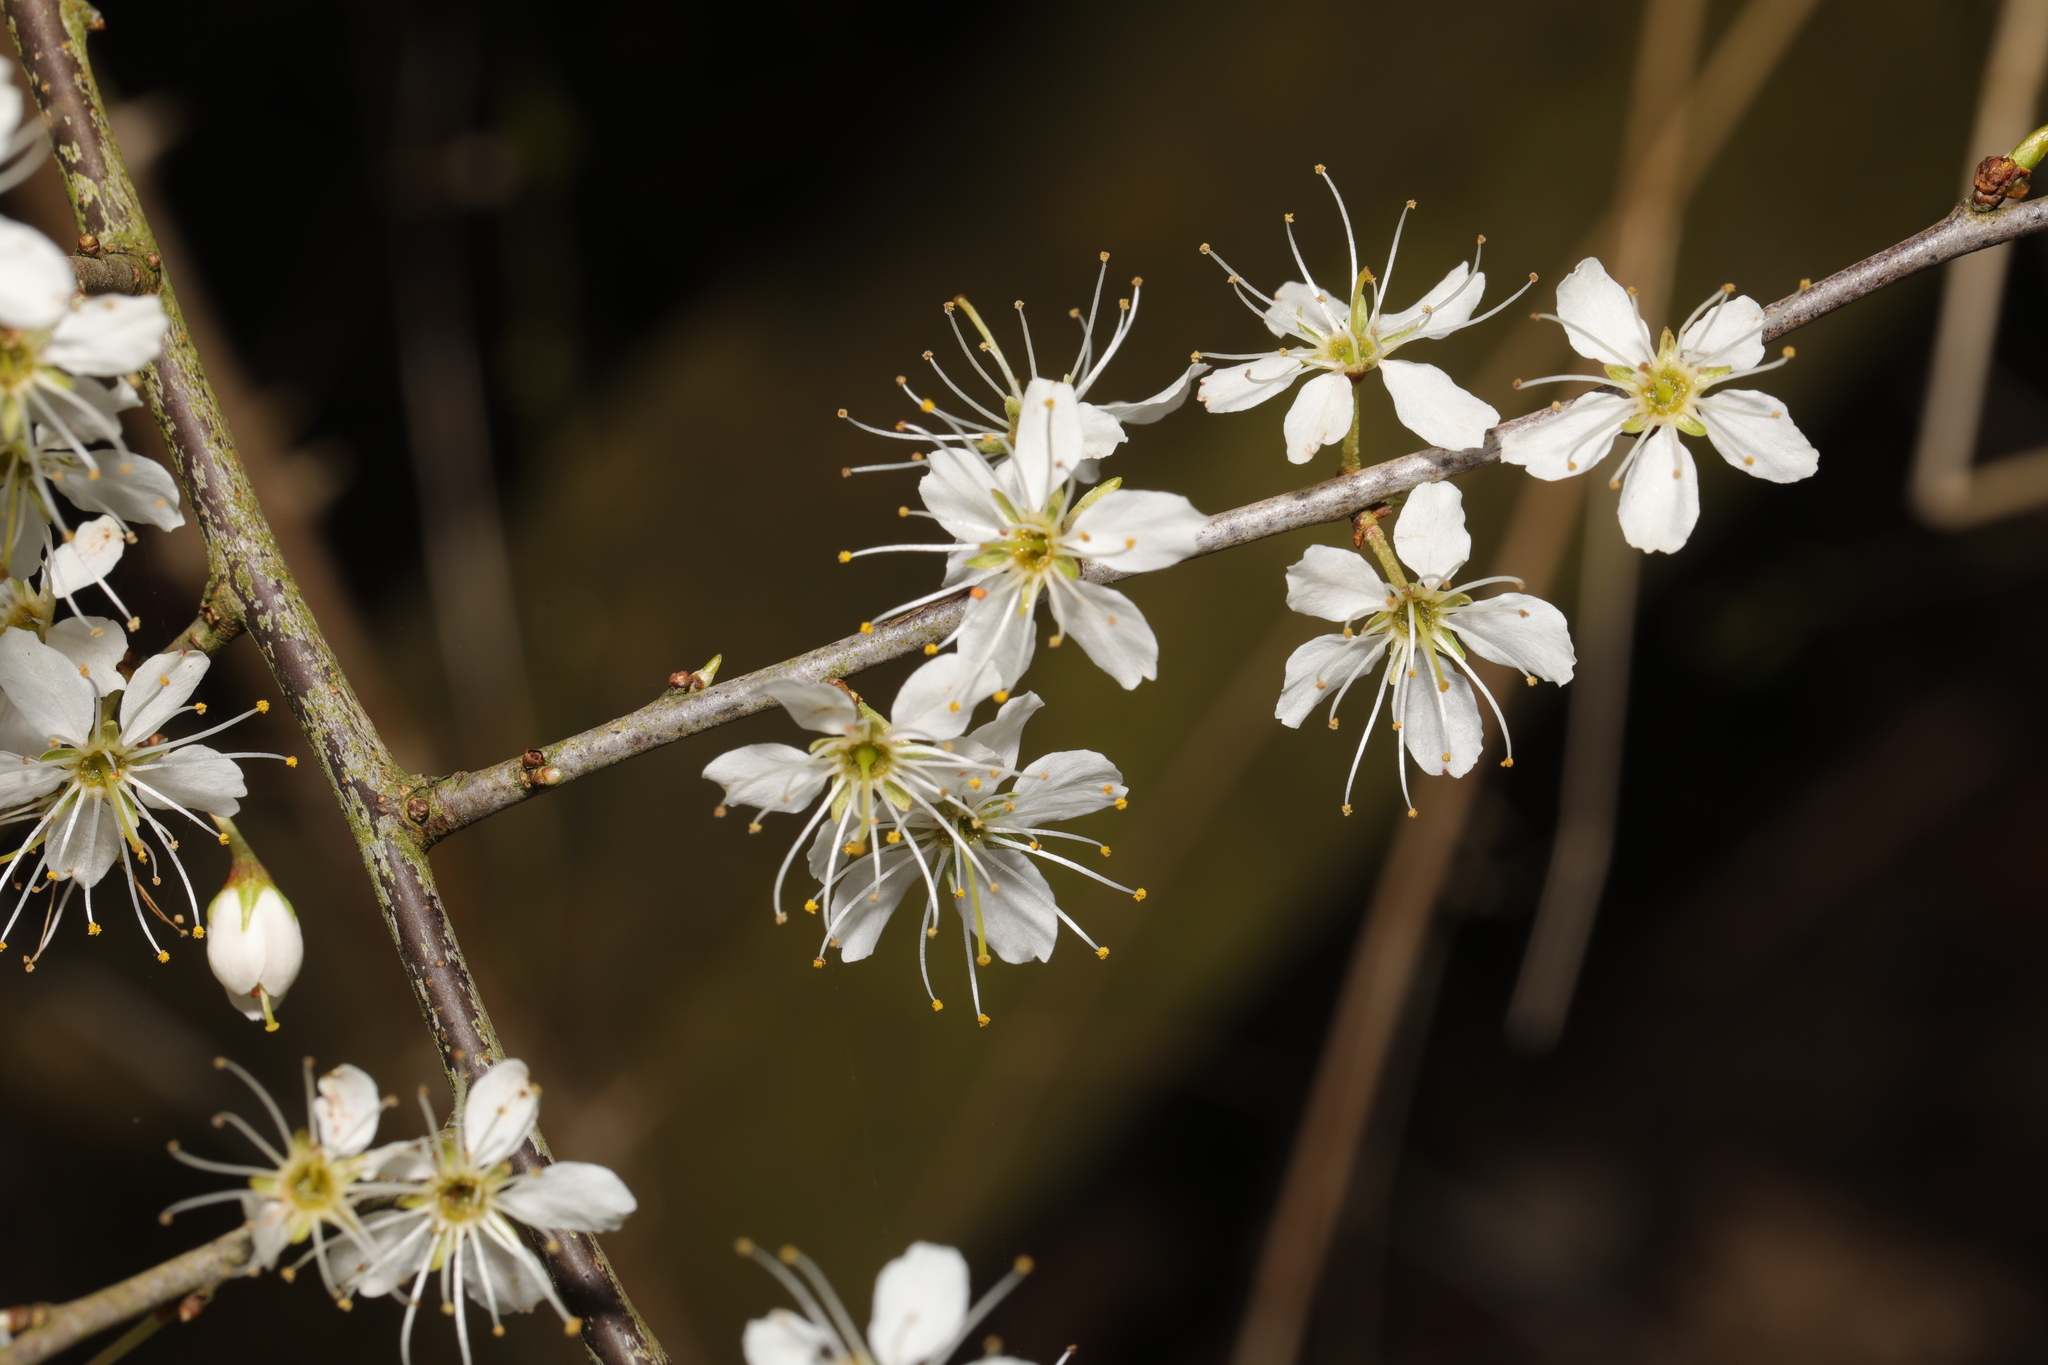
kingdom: Plantae
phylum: Tracheophyta
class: Magnoliopsida
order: Rosales
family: Rosaceae
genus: Prunus
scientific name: Prunus spinosa
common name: Blackthorn
